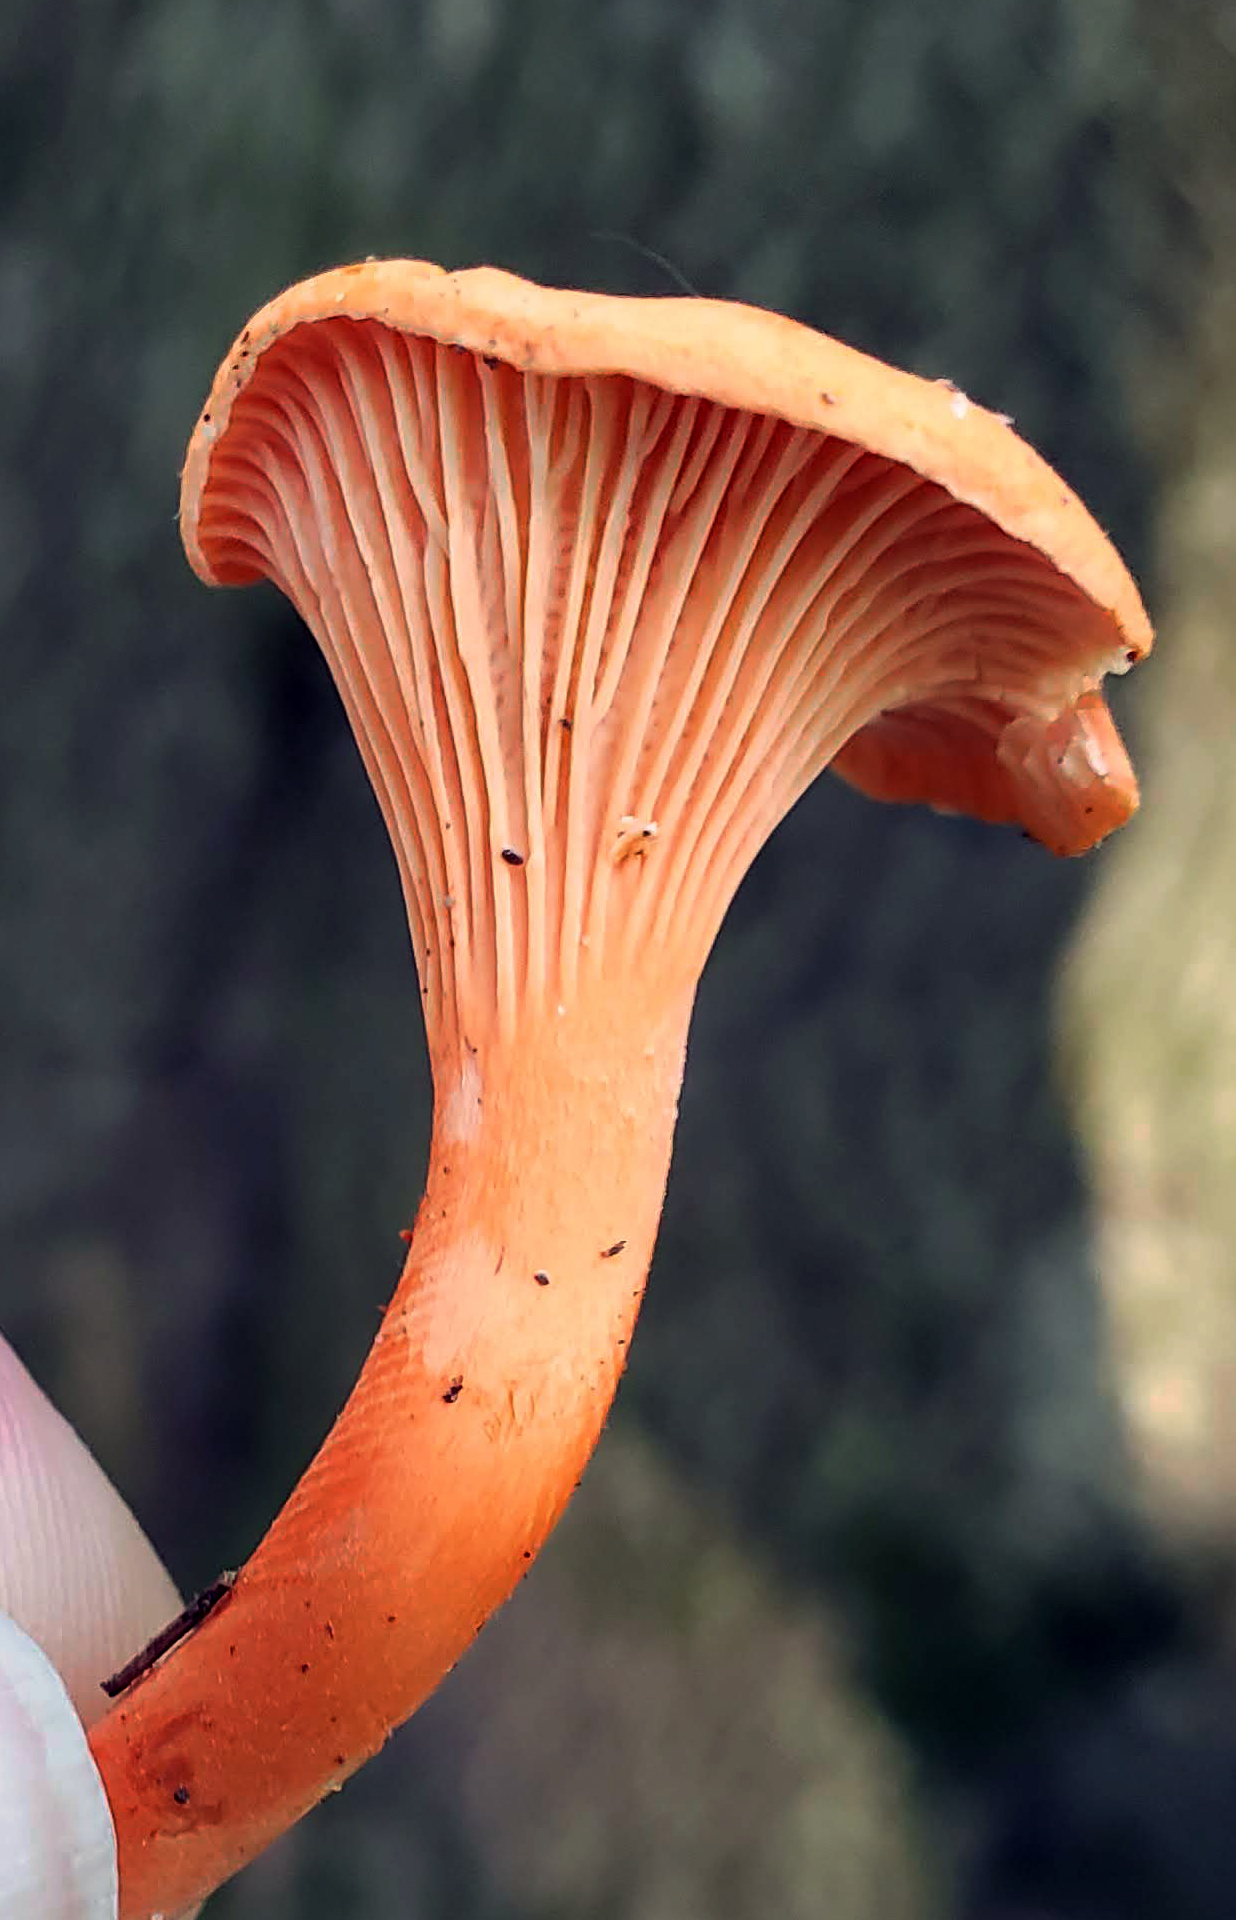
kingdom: Fungi
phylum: Basidiomycota
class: Agaricomycetes
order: Cantharellales
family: Hydnaceae
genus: Cantharellus
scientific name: Cantharellus cinnabarinus
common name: Cinnabar chanterelle
